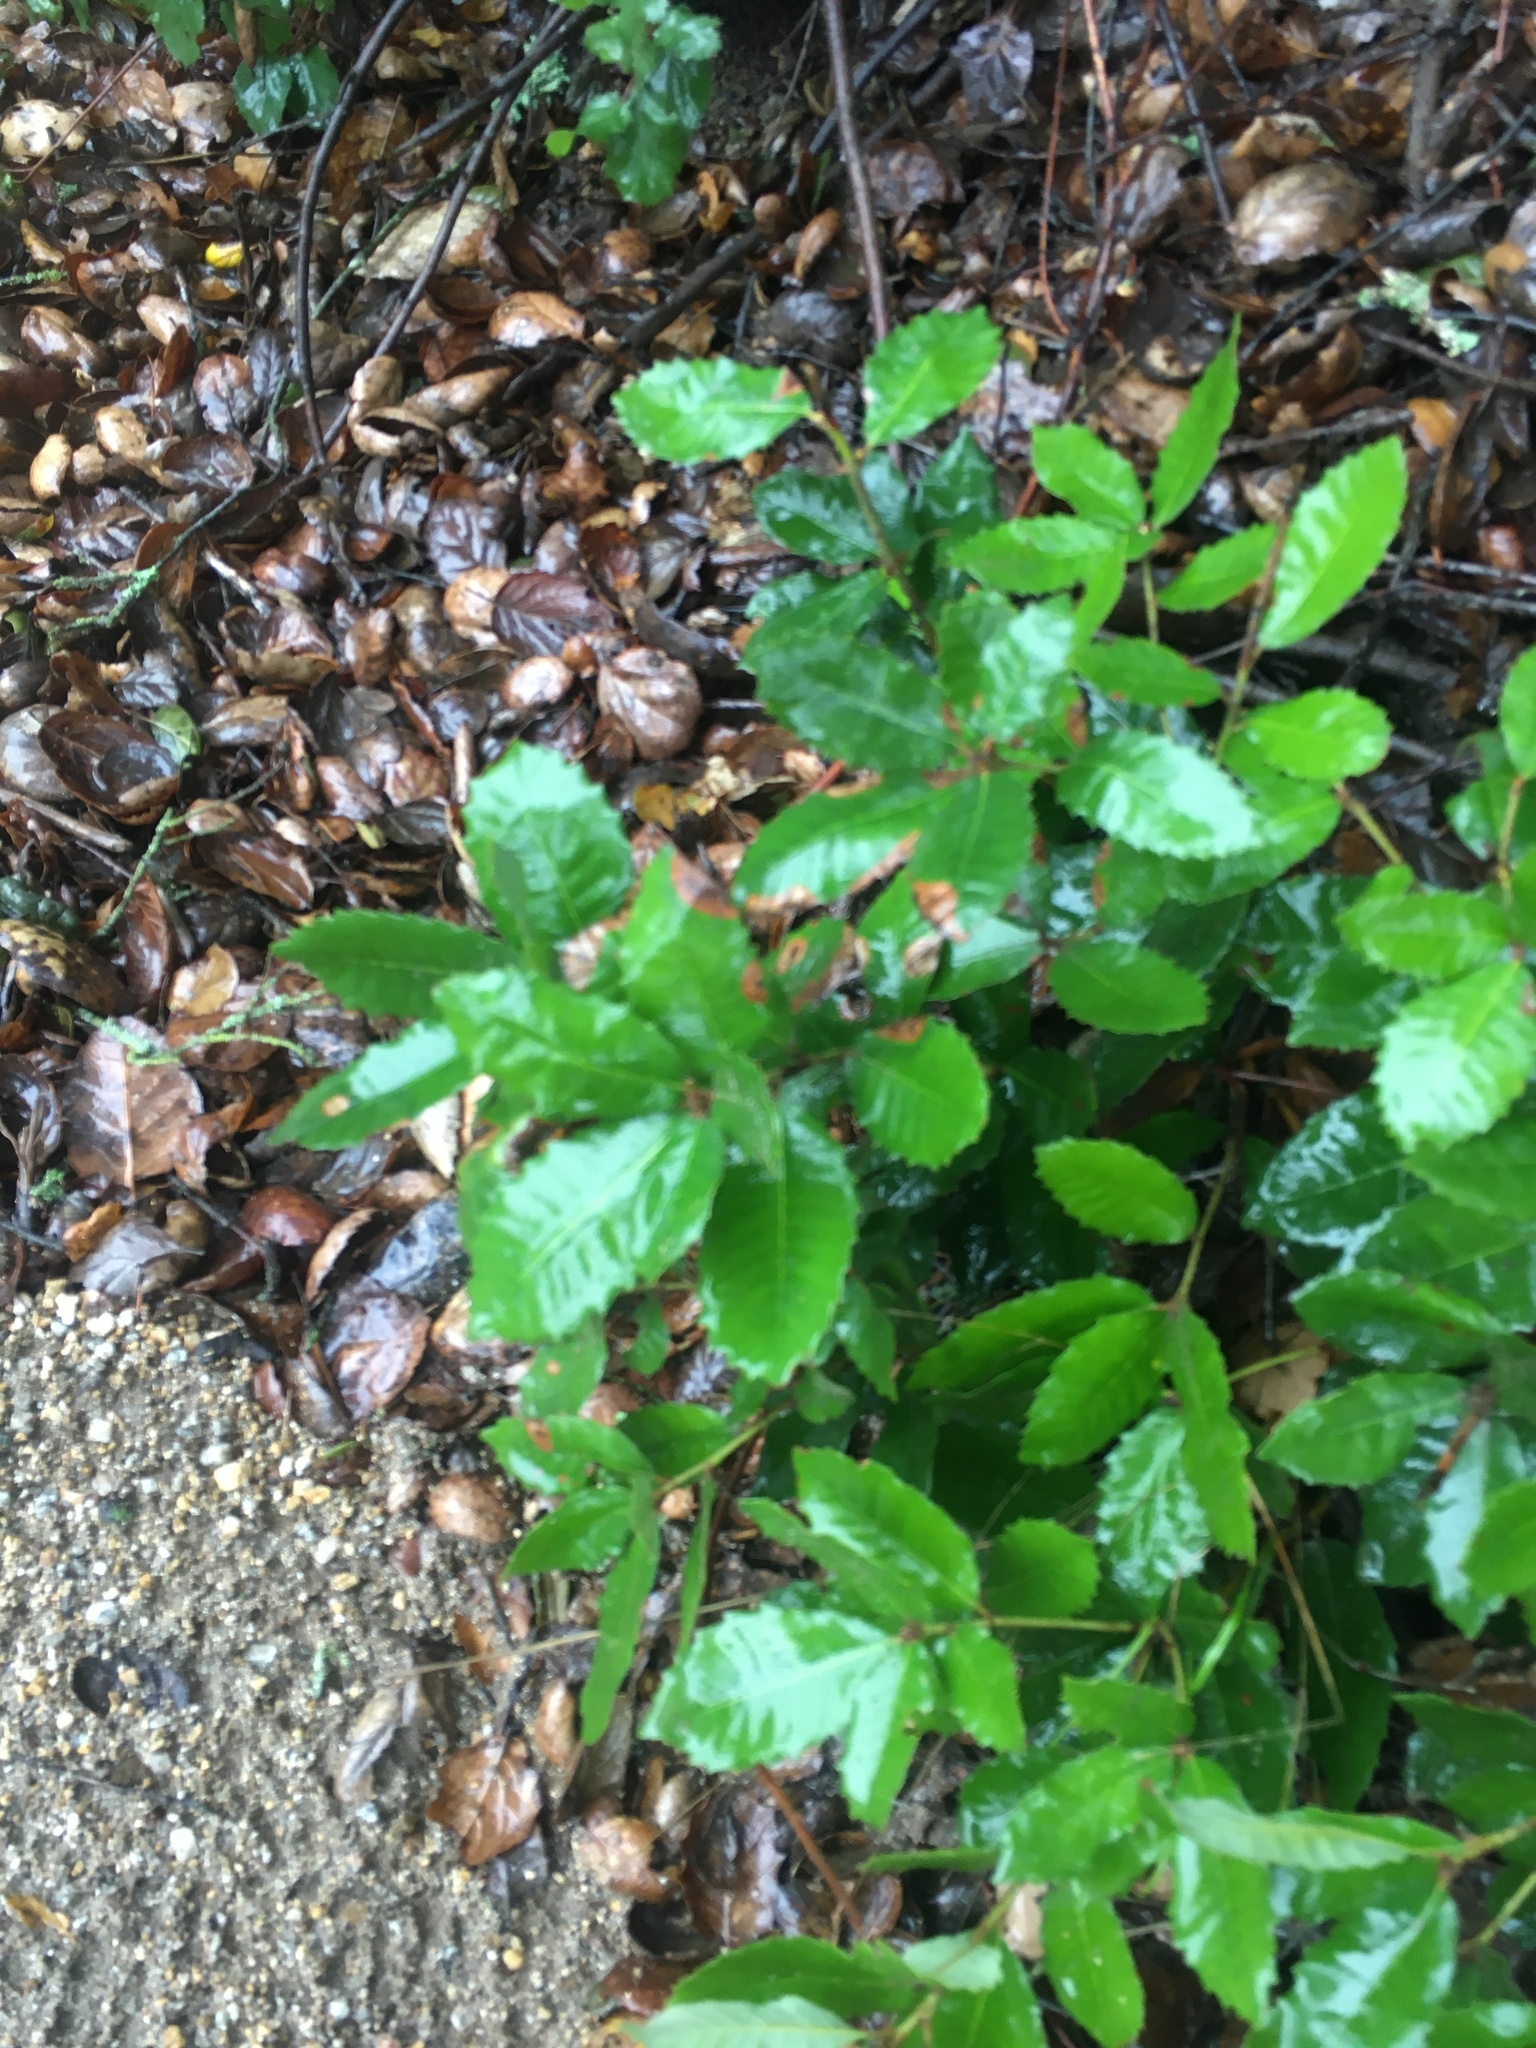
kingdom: Plantae
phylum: Tracheophyta
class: Magnoliopsida
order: Fagales
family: Fagaceae
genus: Notholithocarpus
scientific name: Notholithocarpus densiflorus
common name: Tan bark oak
